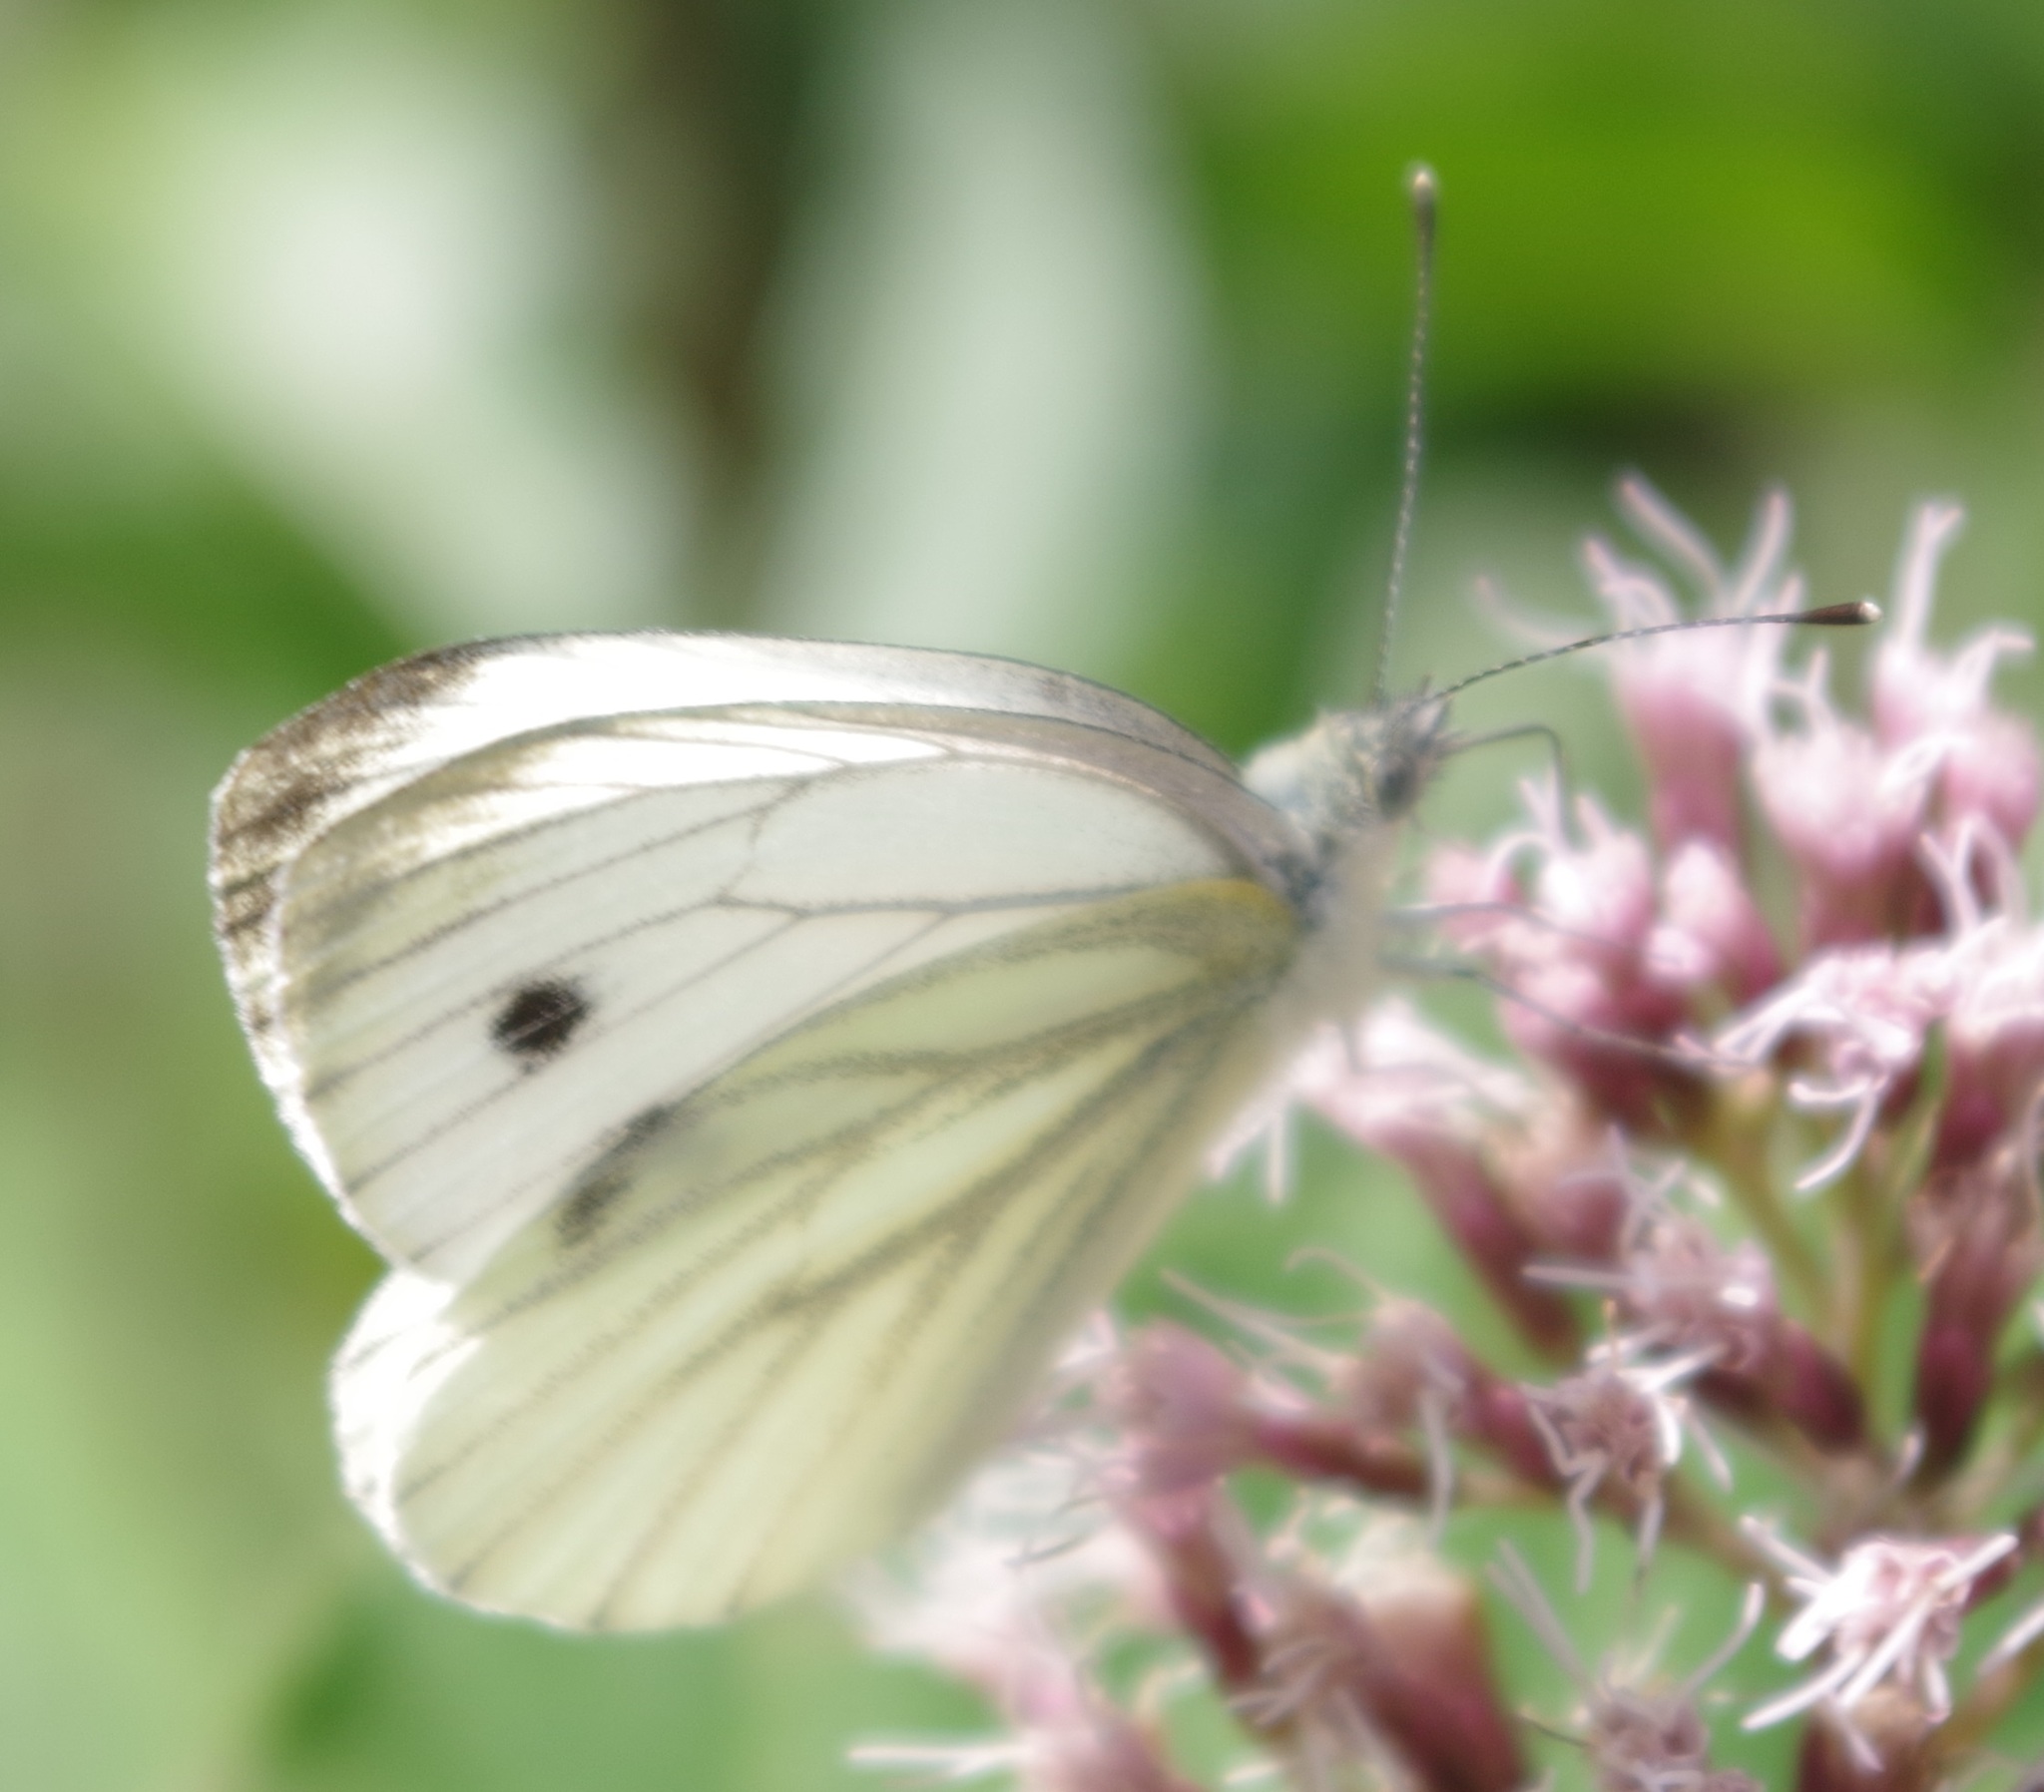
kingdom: Animalia
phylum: Arthropoda
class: Insecta
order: Lepidoptera
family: Pieridae
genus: Pieris
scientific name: Pieris napi
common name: Green-veined white
